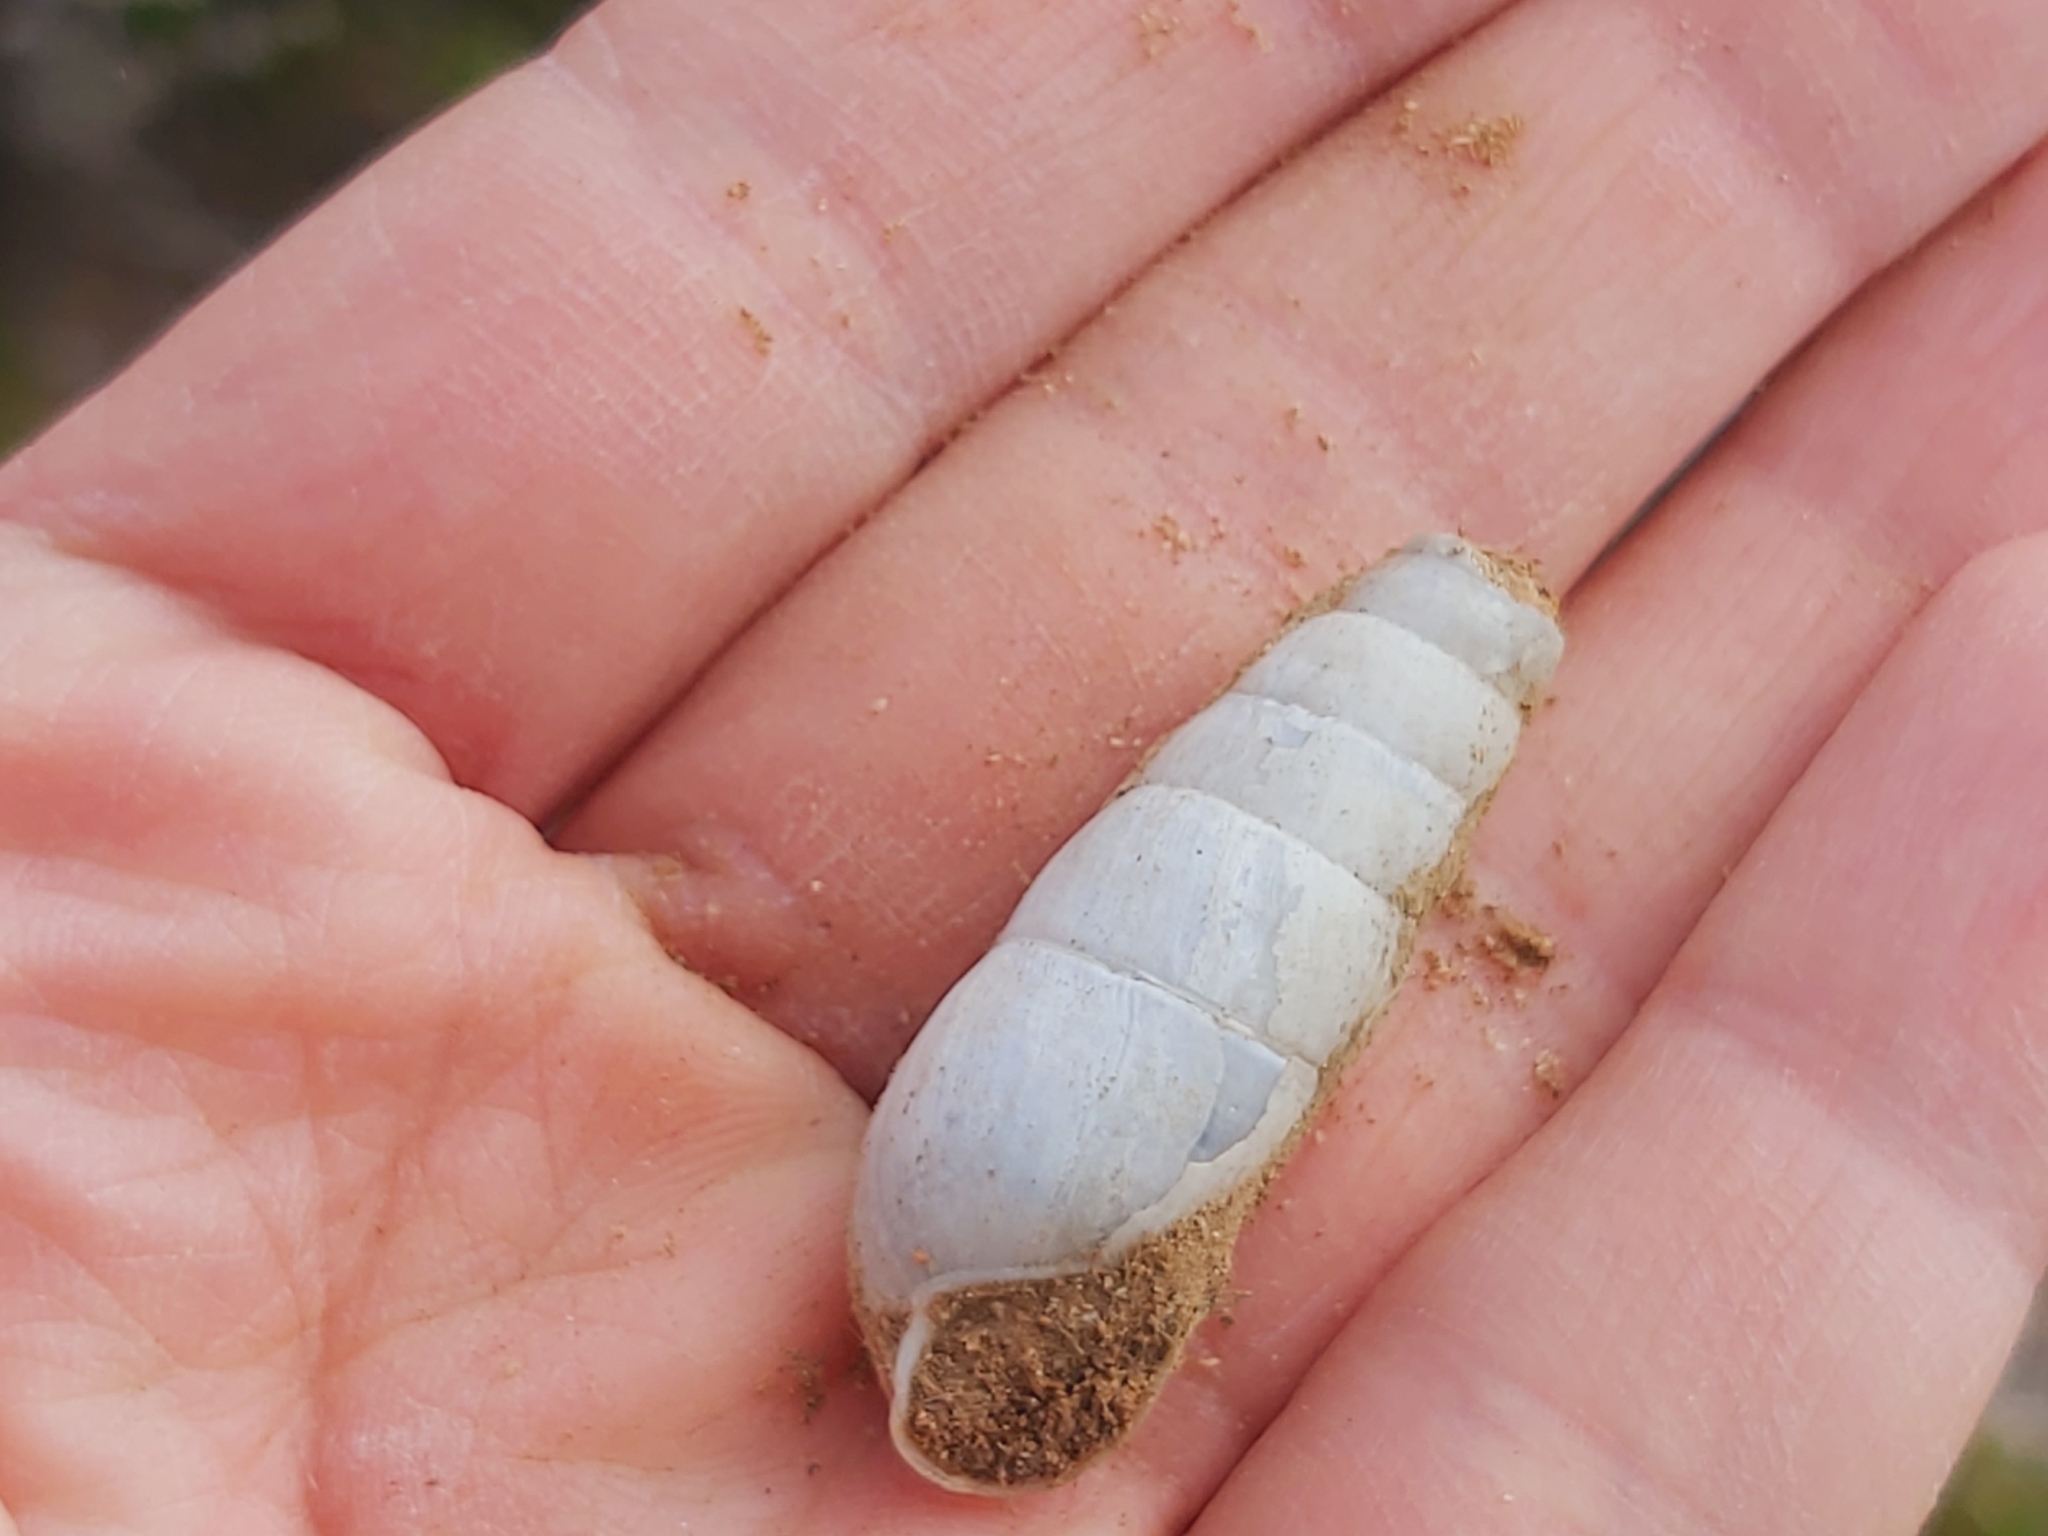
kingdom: Animalia
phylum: Mollusca
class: Gastropoda
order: Stylommatophora
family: Achatinidae
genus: Rumina
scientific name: Rumina decollata
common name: Decollate snail
